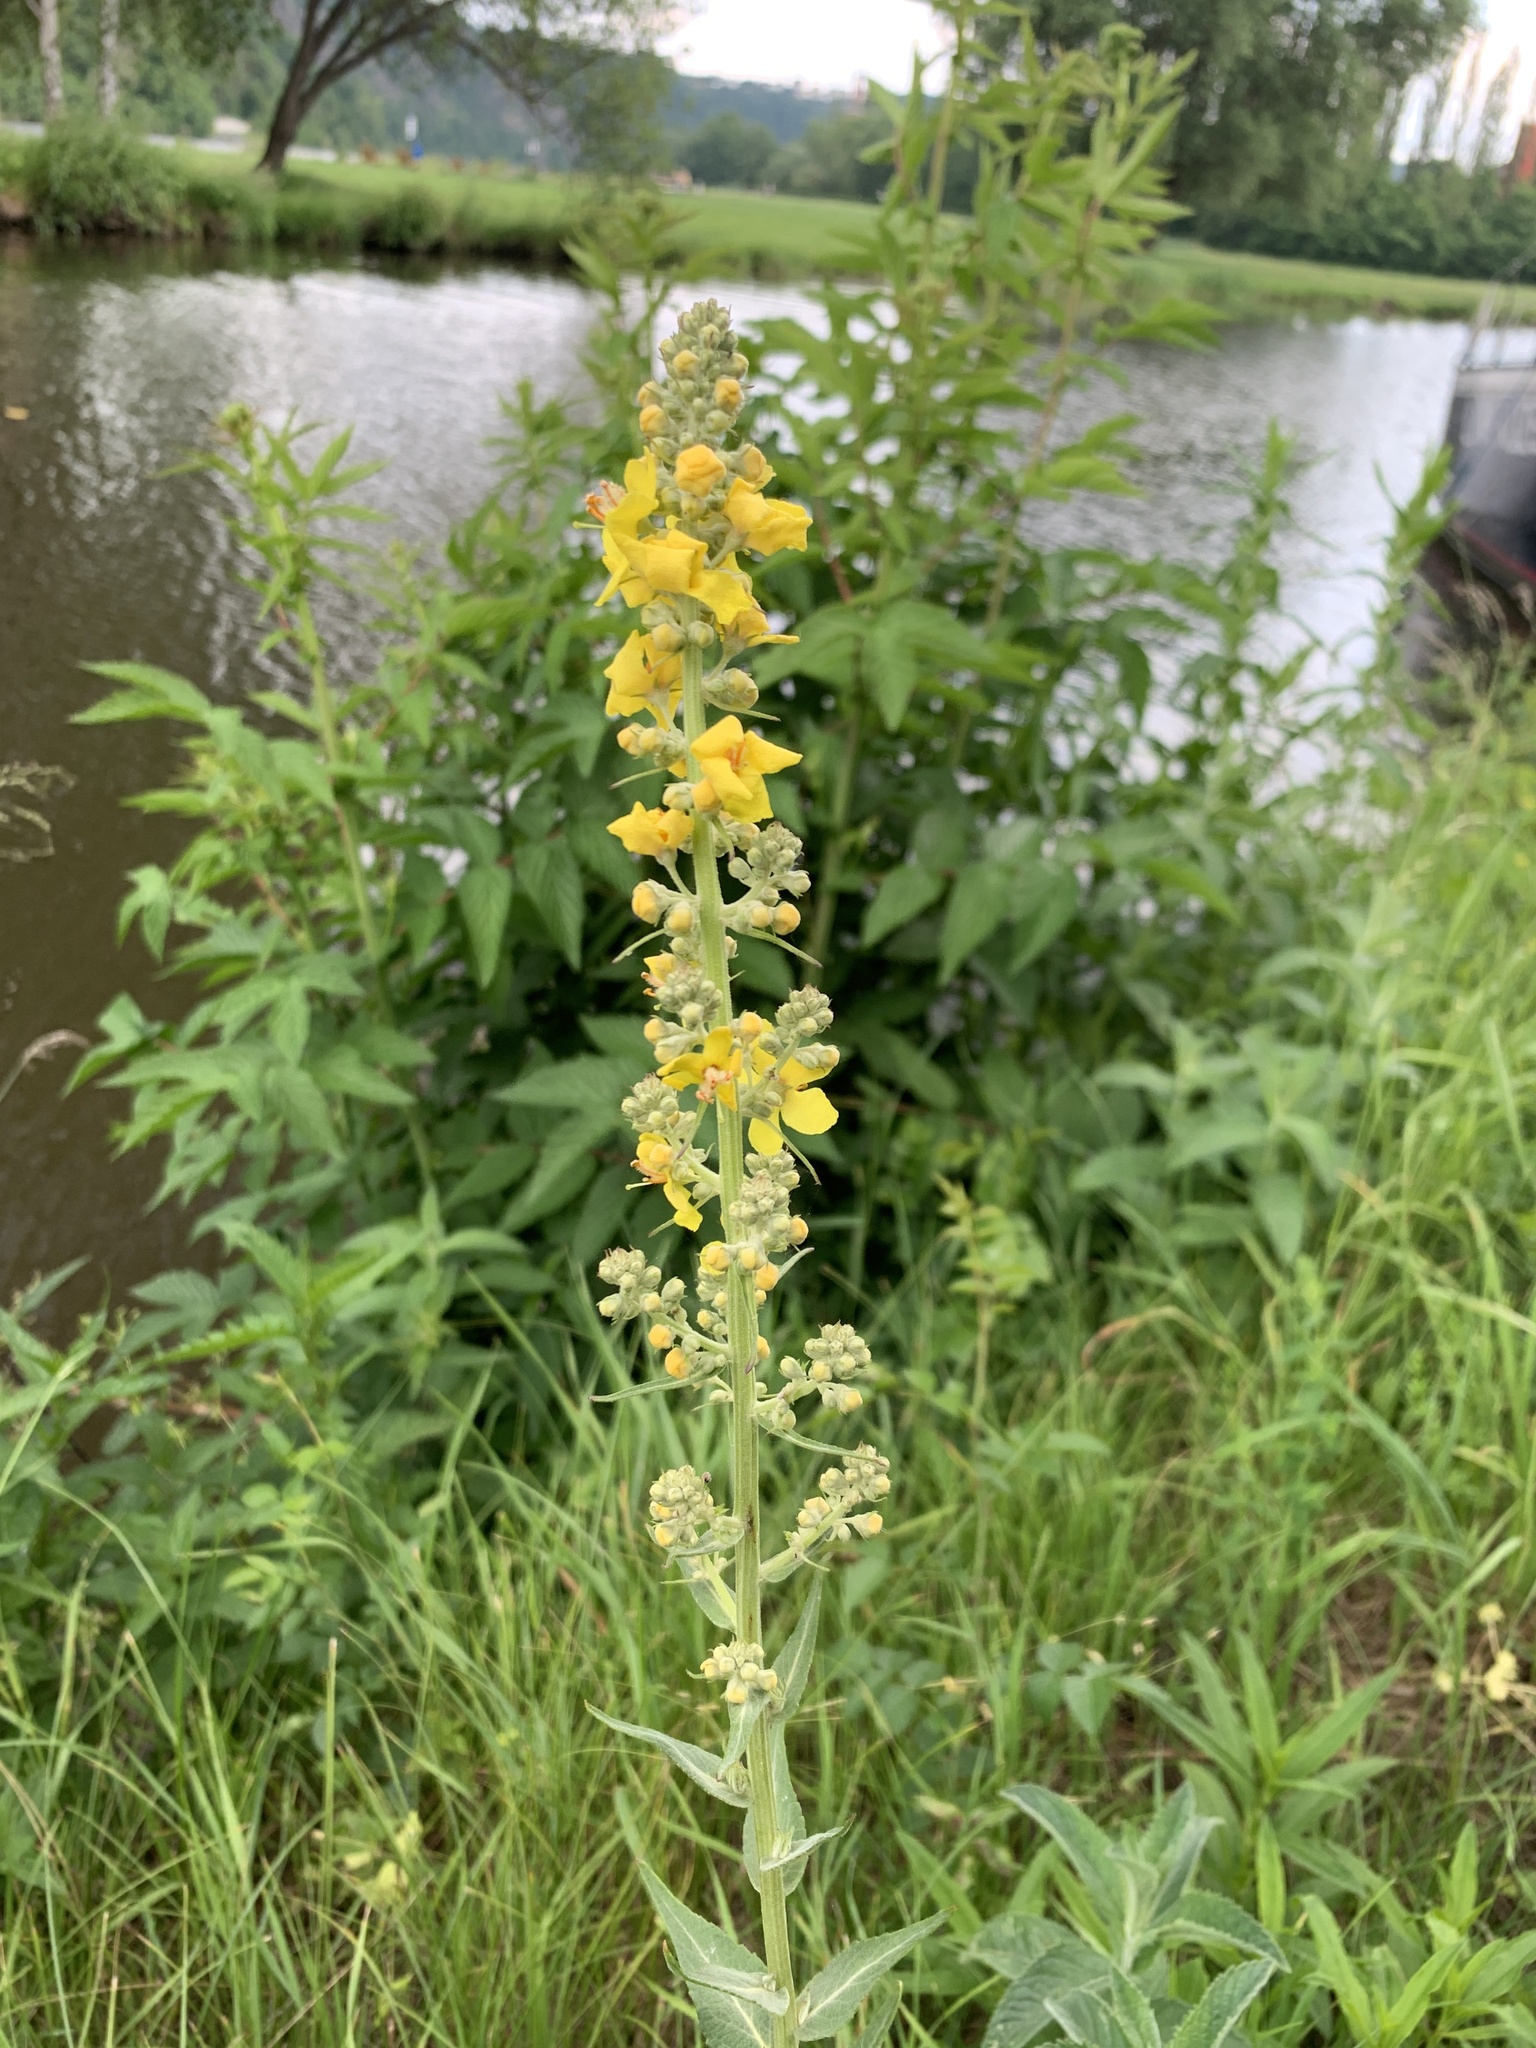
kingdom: Plantae
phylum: Tracheophyta
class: Magnoliopsida
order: Lamiales
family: Scrophulariaceae
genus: Verbascum
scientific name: Verbascum lychnitis
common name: White mullein
